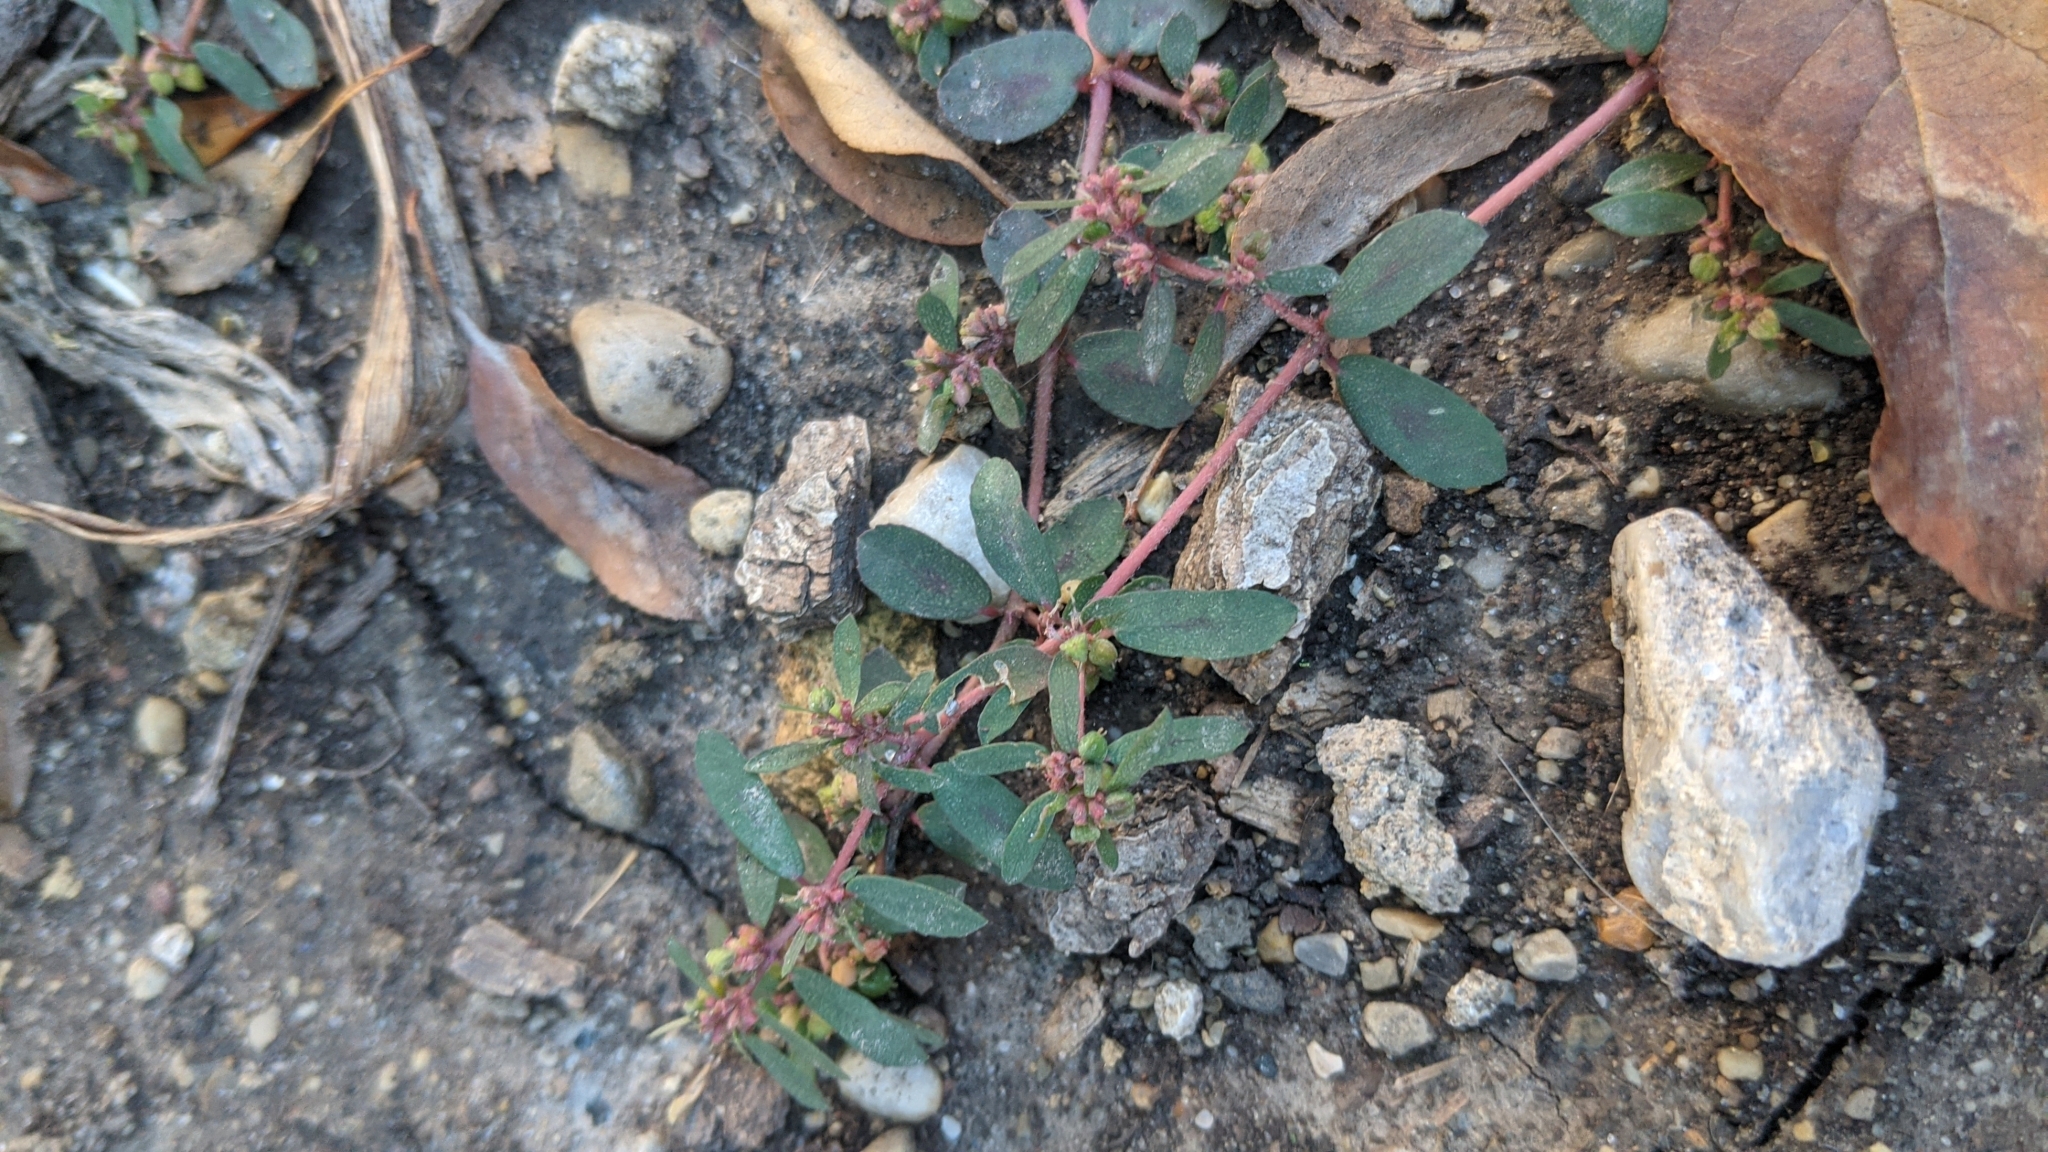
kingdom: Plantae
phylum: Tracheophyta
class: Magnoliopsida
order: Malpighiales
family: Euphorbiaceae
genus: Euphorbia
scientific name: Euphorbia maculata
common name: Spotted spurge
